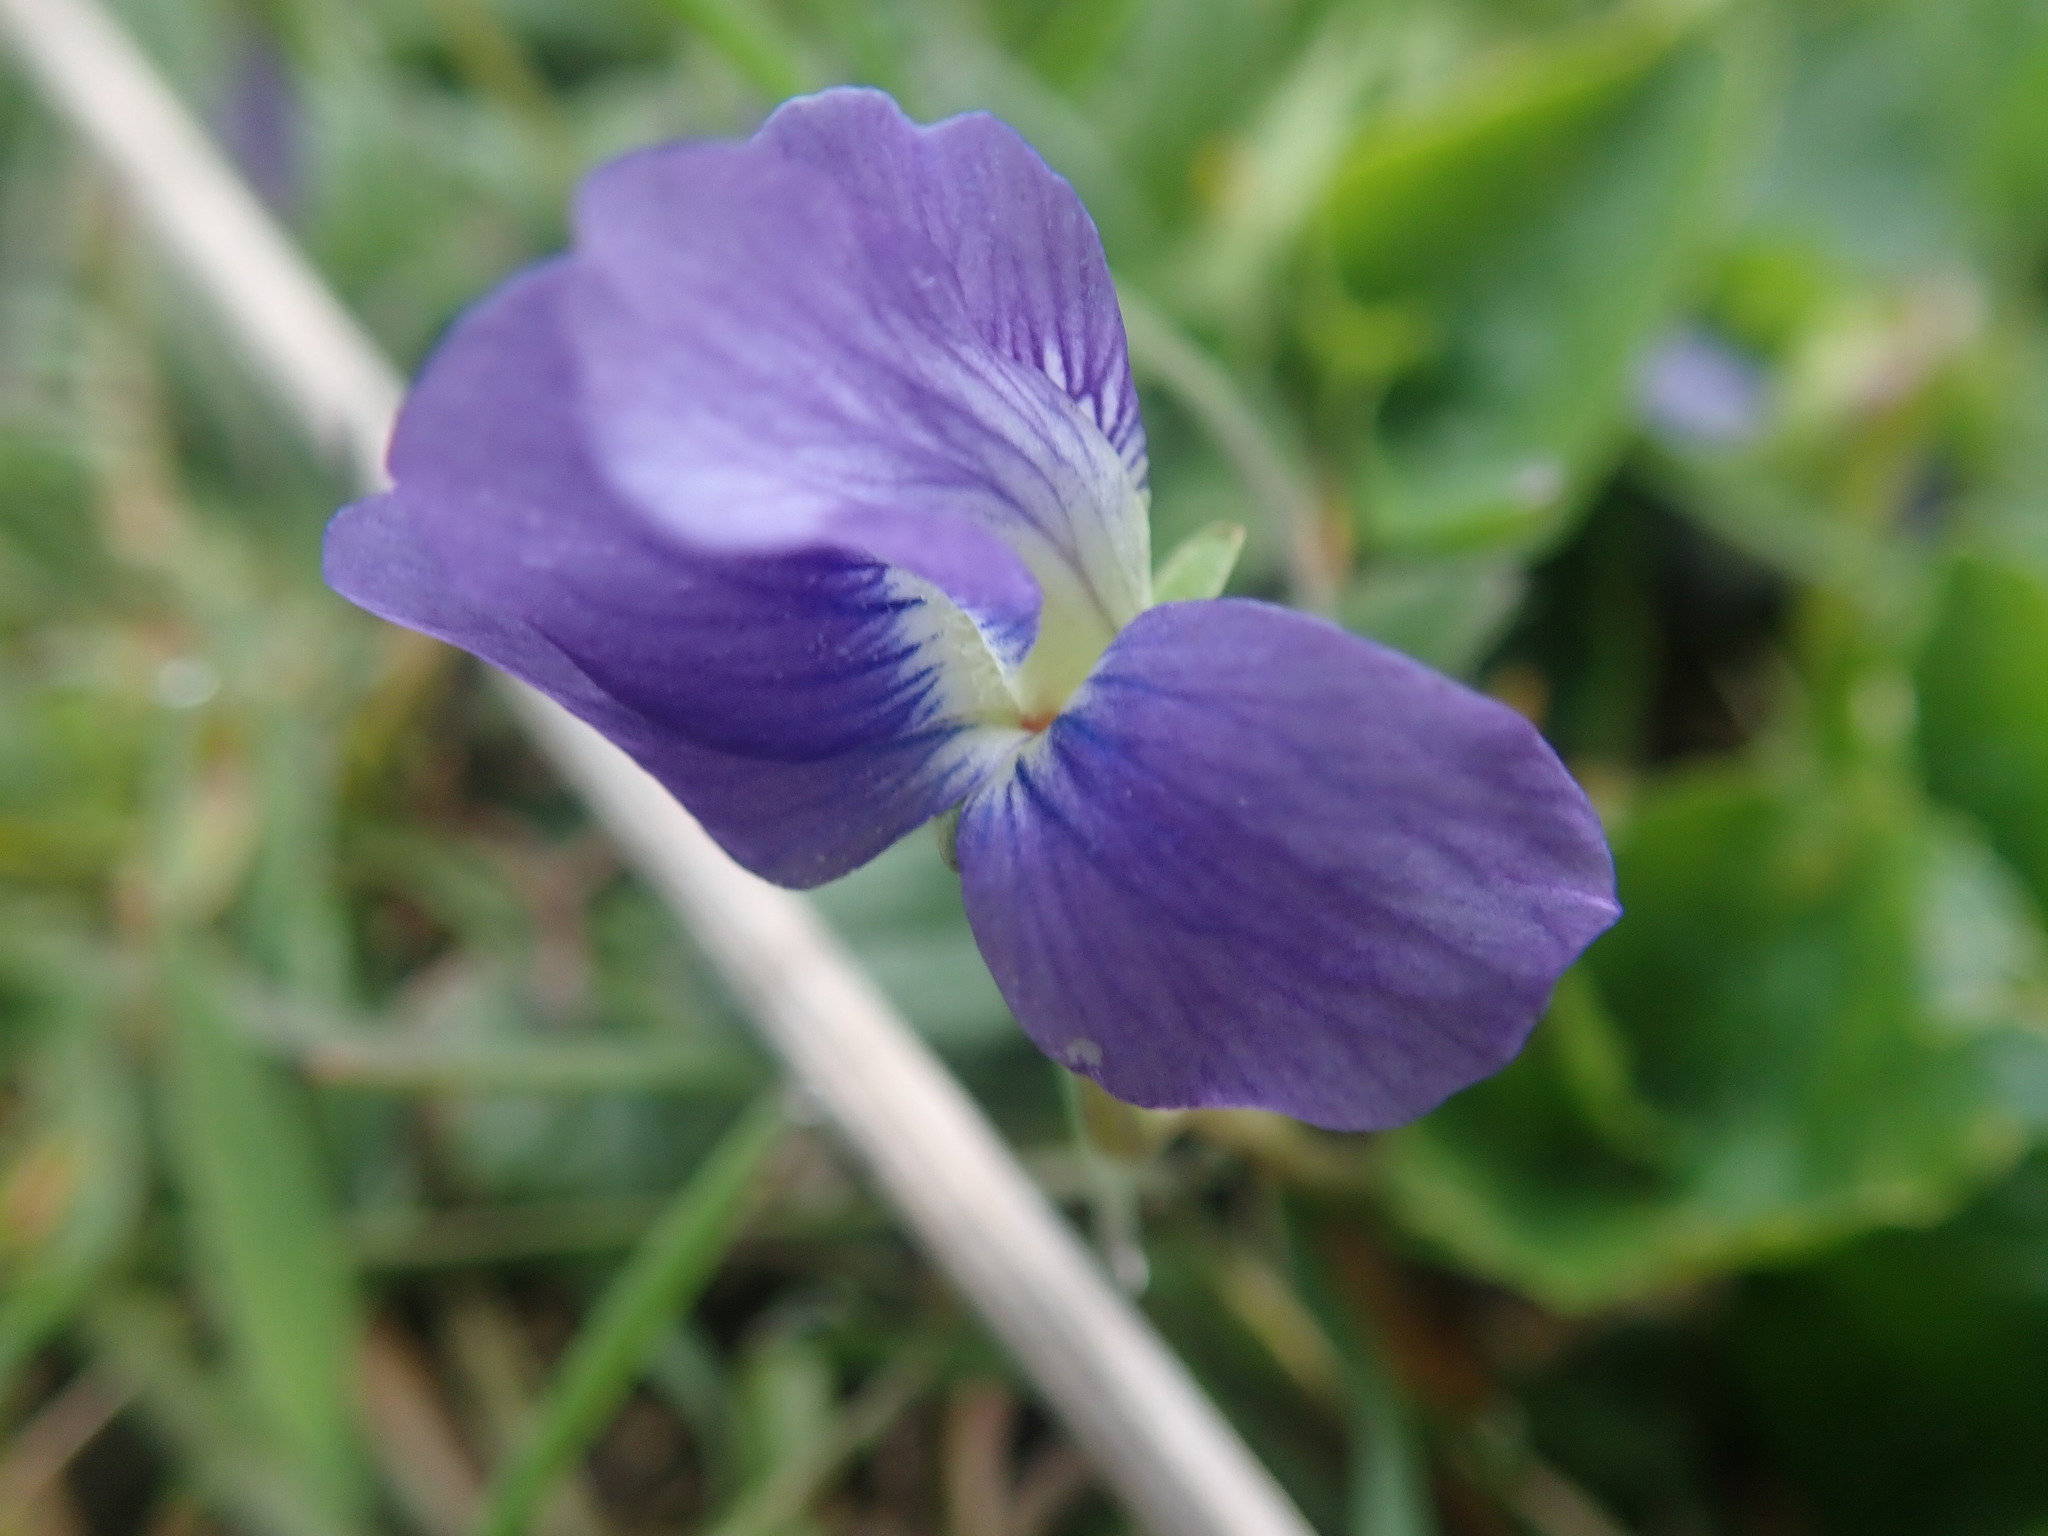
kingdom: Plantae
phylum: Tracheophyta
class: Magnoliopsida
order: Malpighiales
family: Violaceae
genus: Viola
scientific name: Viola sororia
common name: Dooryard violet
